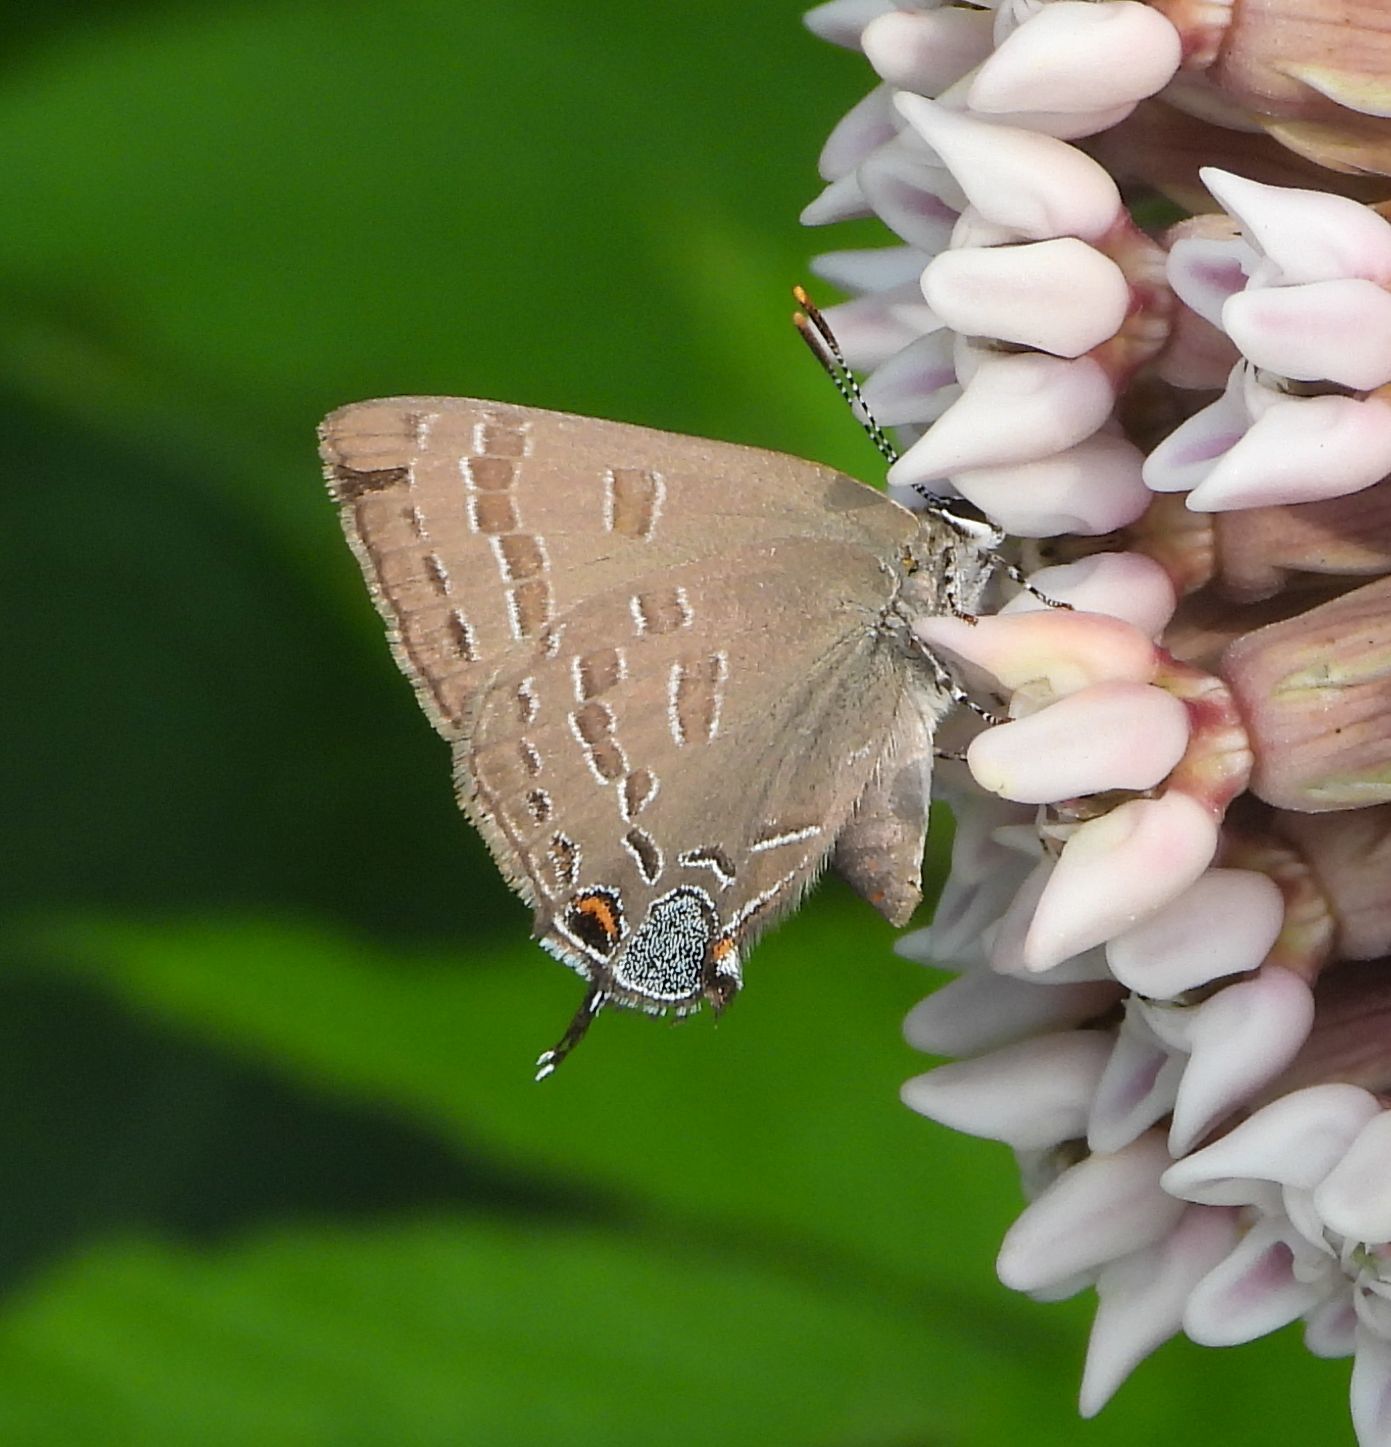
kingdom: Animalia
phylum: Arthropoda
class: Insecta
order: Lepidoptera
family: Lycaenidae
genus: Strymon
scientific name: Strymon caryaevorus
